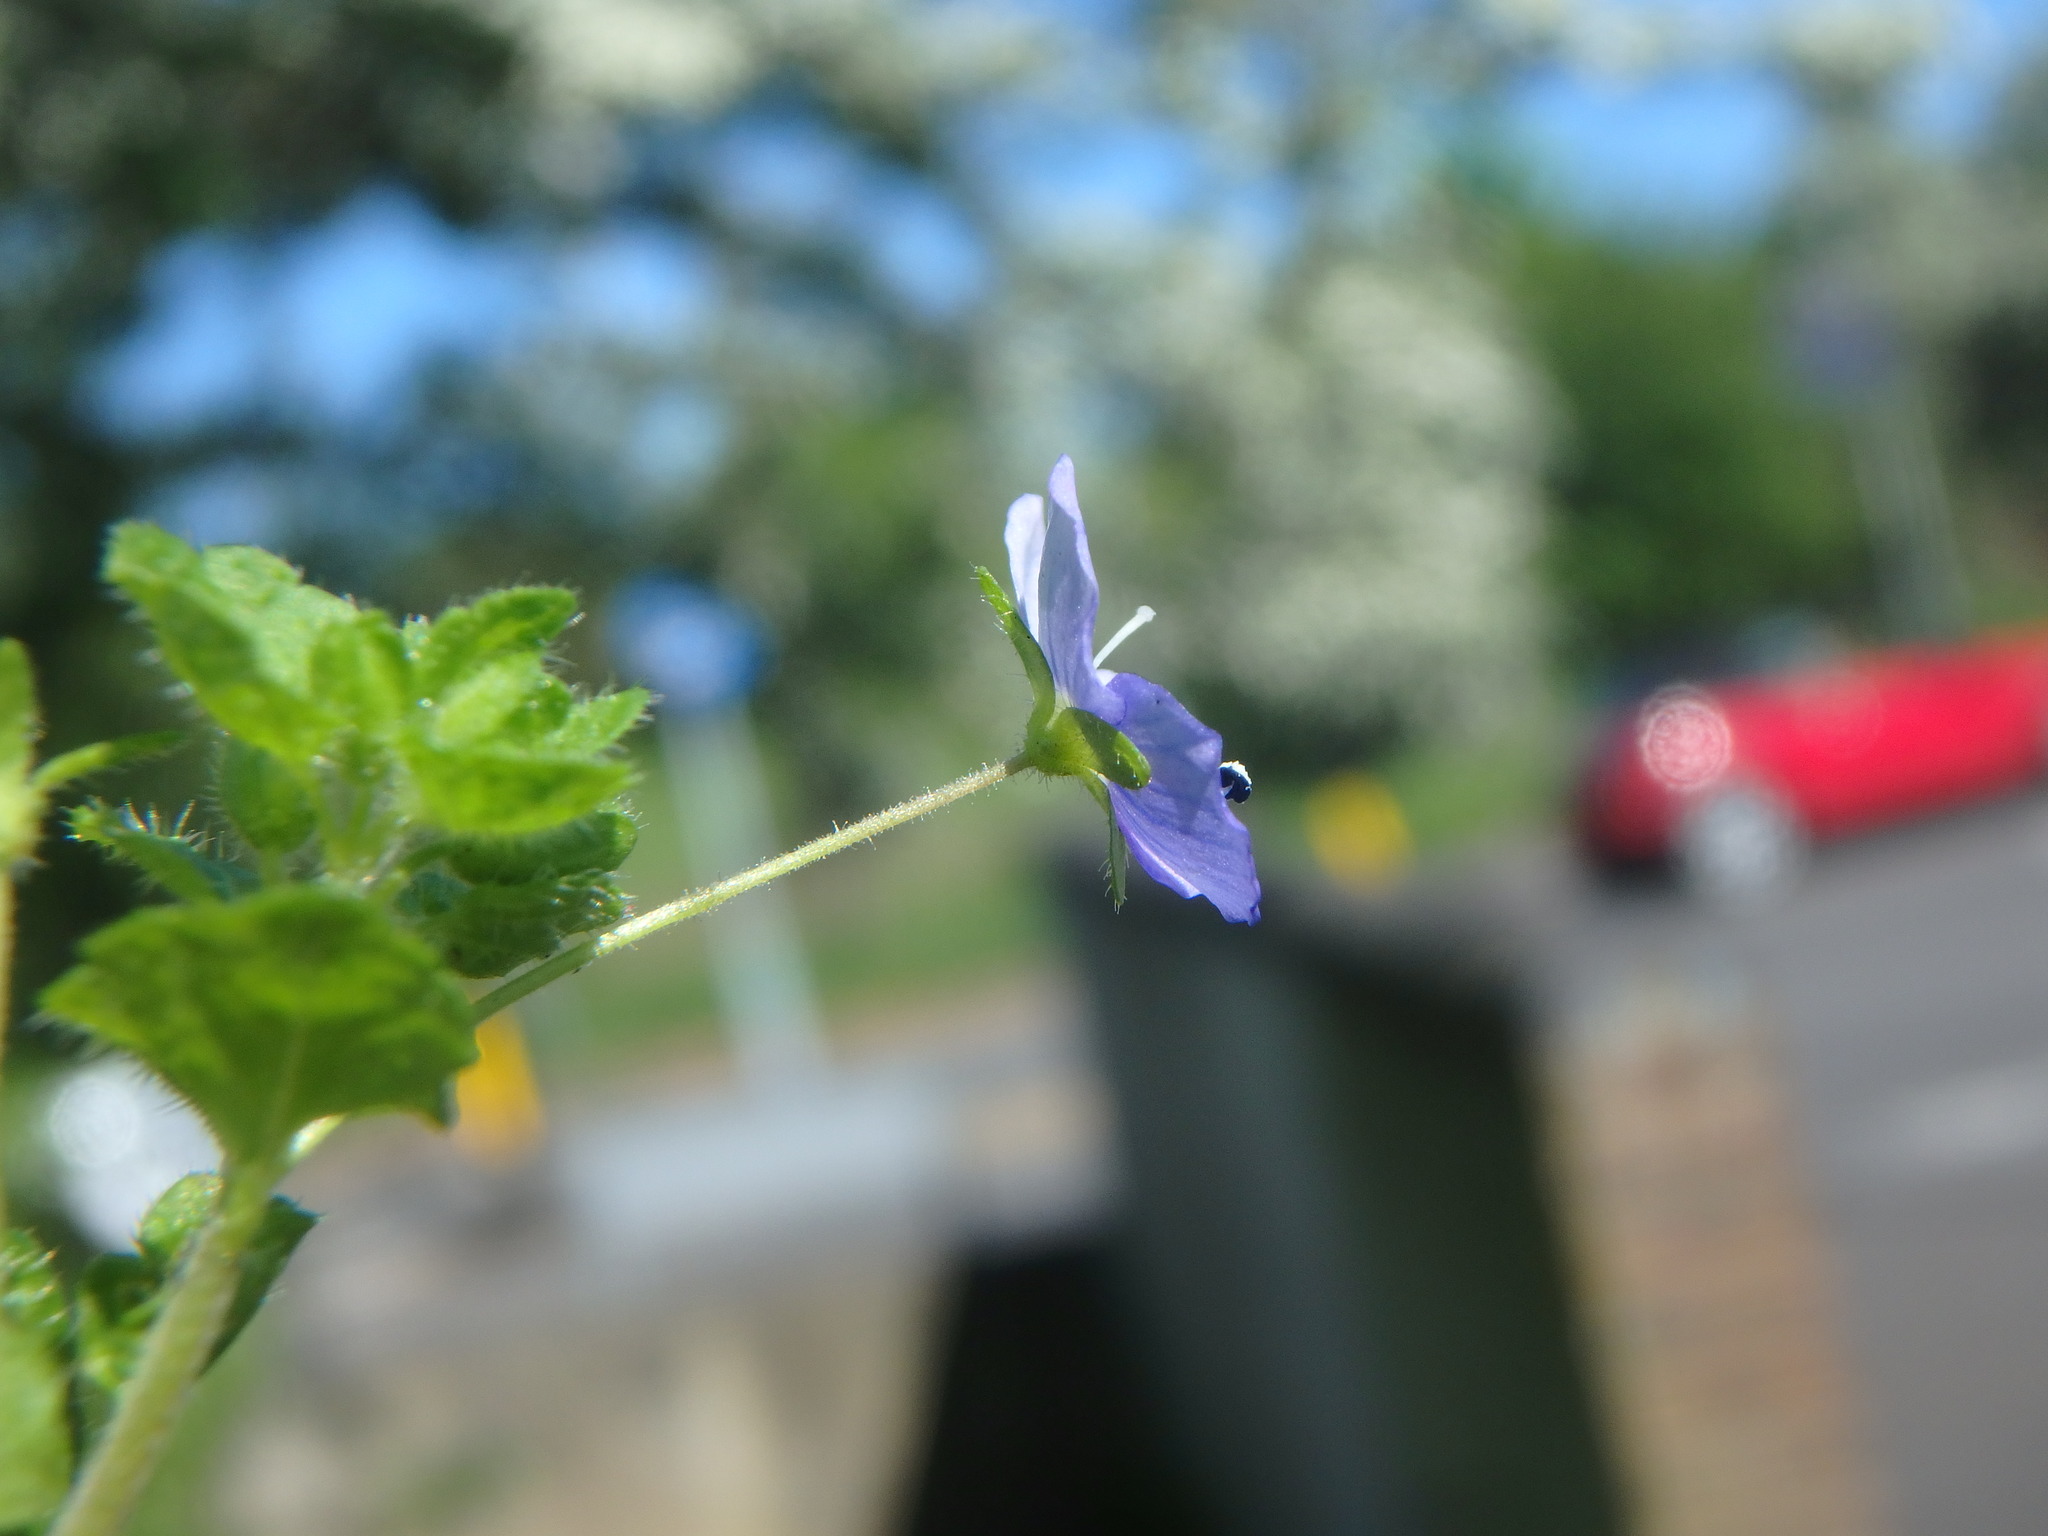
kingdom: Plantae
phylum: Tracheophyta
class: Magnoliopsida
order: Lamiales
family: Plantaginaceae
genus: Veronica
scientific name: Veronica filiformis
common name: Slender speedwell
